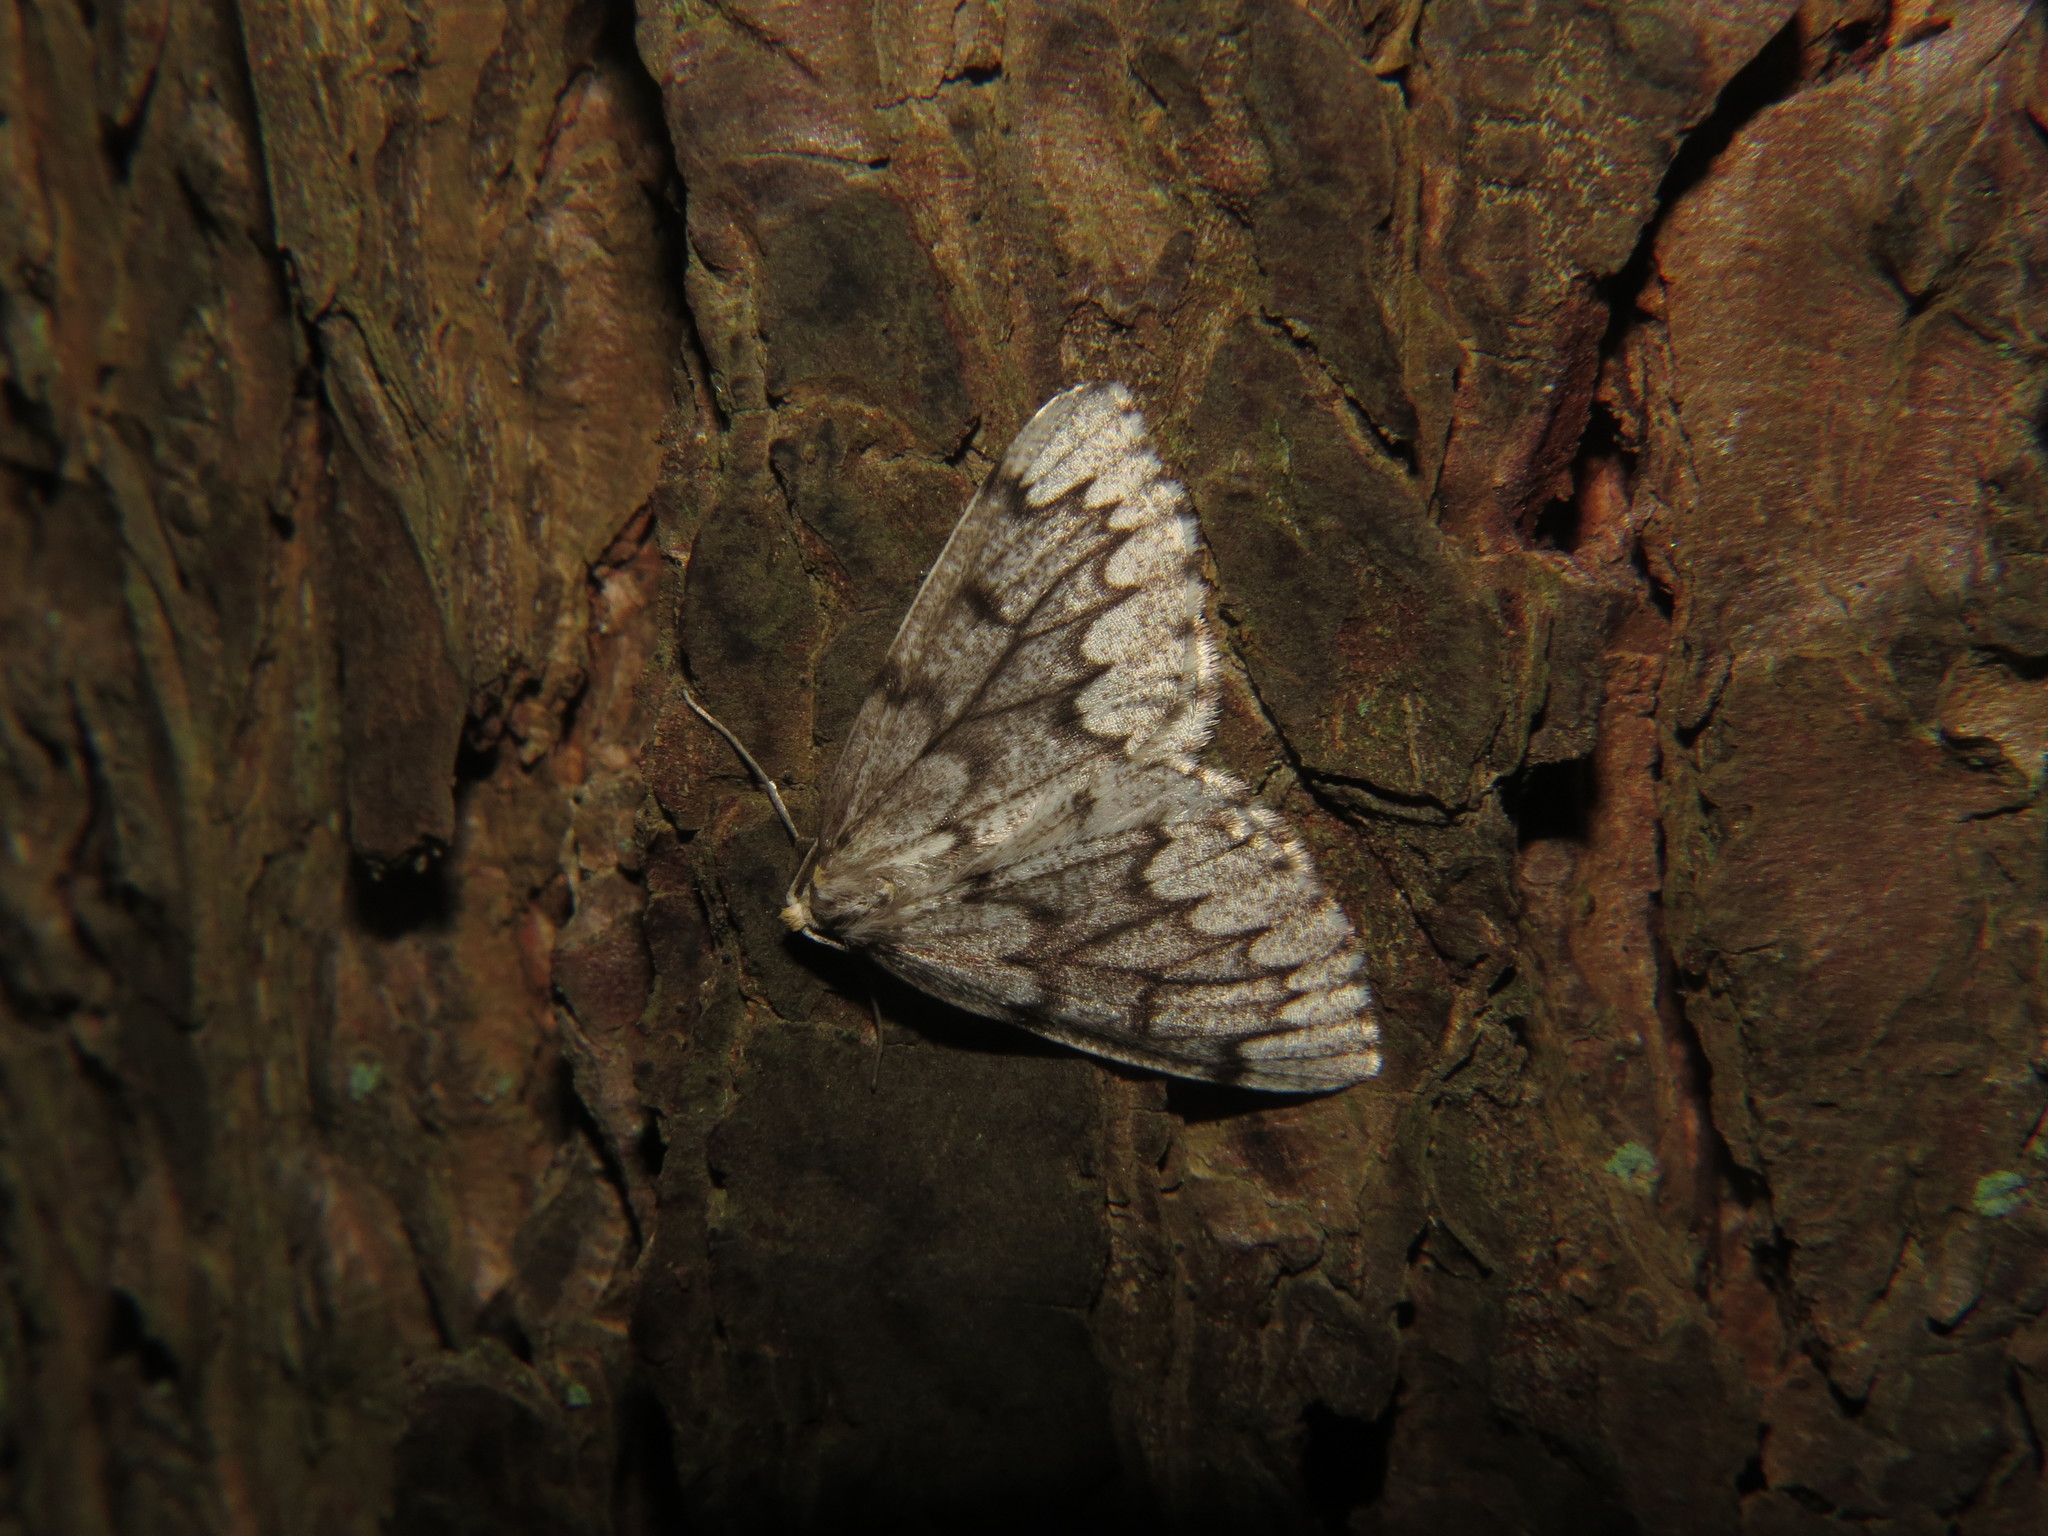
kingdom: Animalia
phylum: Arthropoda
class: Insecta
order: Lepidoptera
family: Geometridae
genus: Nepytia
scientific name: Nepytia canosaria
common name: False hemlock looper
